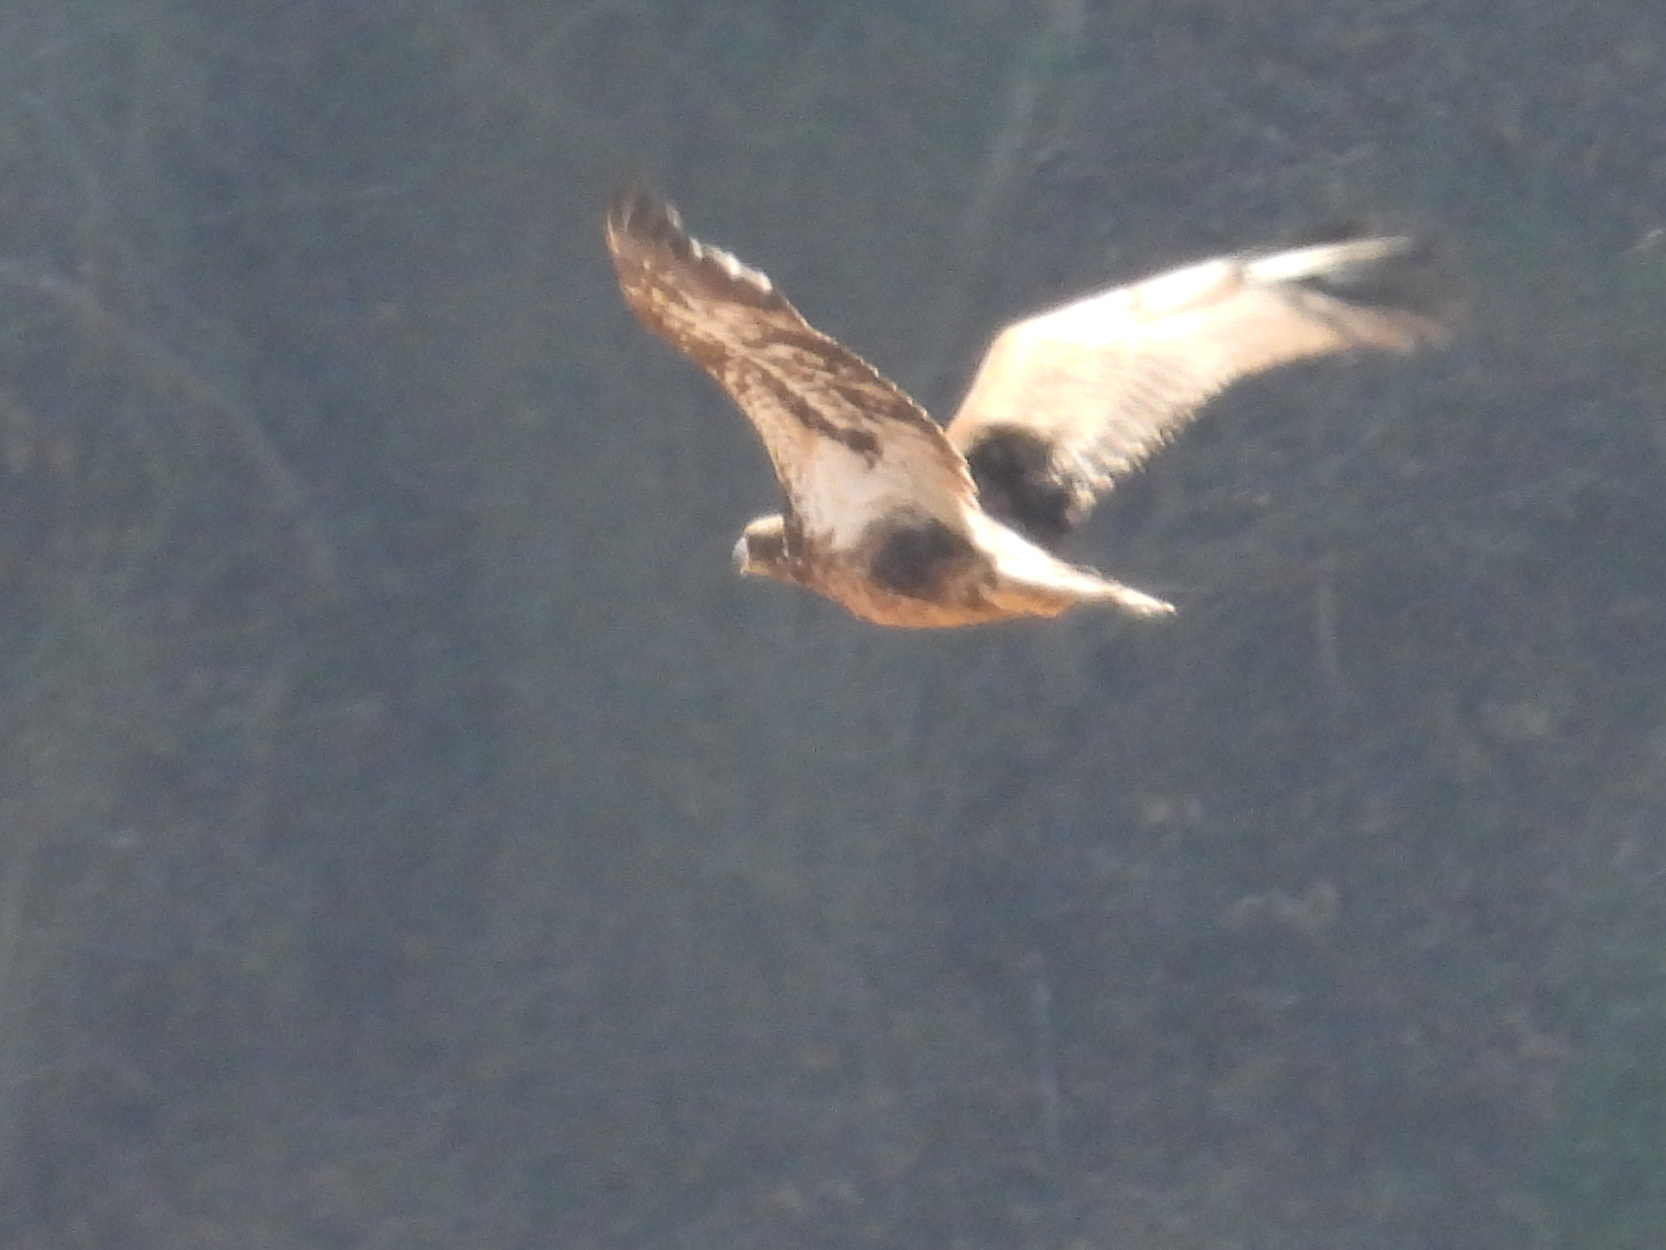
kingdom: Animalia
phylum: Chordata
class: Aves
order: Accipitriformes
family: Accipitridae
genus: Haliaeetus
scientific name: Haliaeetus leucocephalus
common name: Bald eagle
